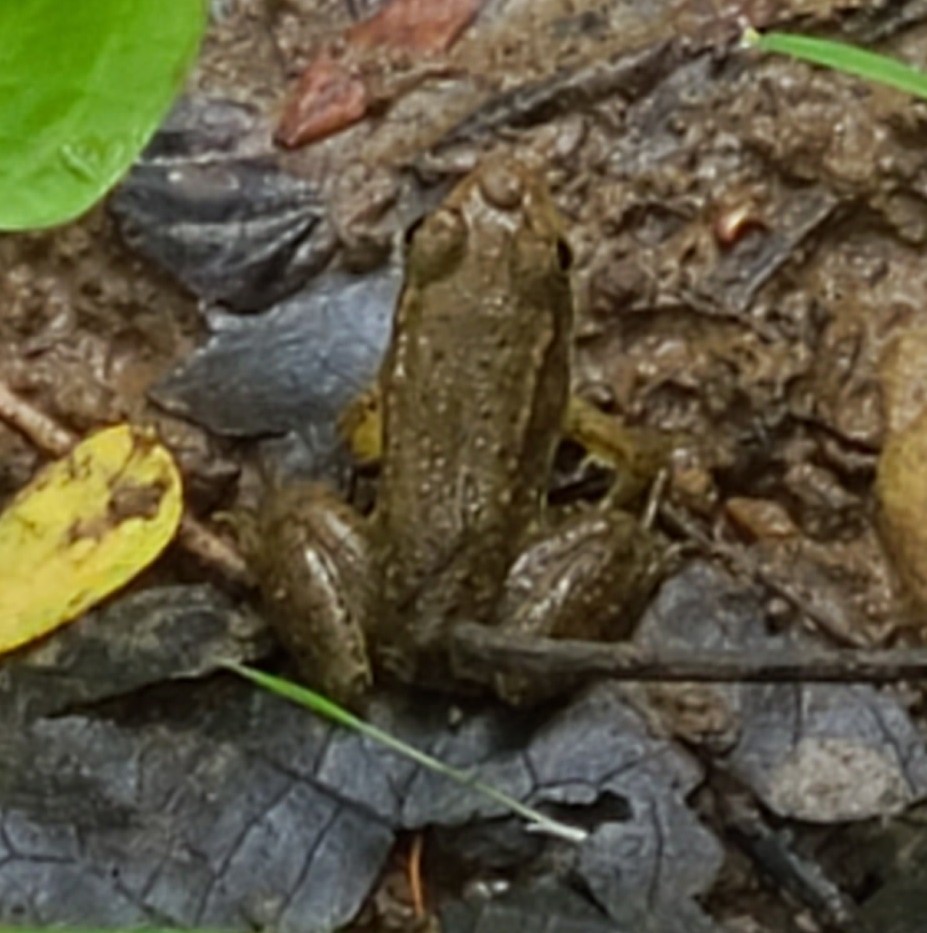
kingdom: Animalia
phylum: Chordata
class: Amphibia
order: Anura
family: Ranidae
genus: Lithobates
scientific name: Lithobates clamitans
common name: Green frog
